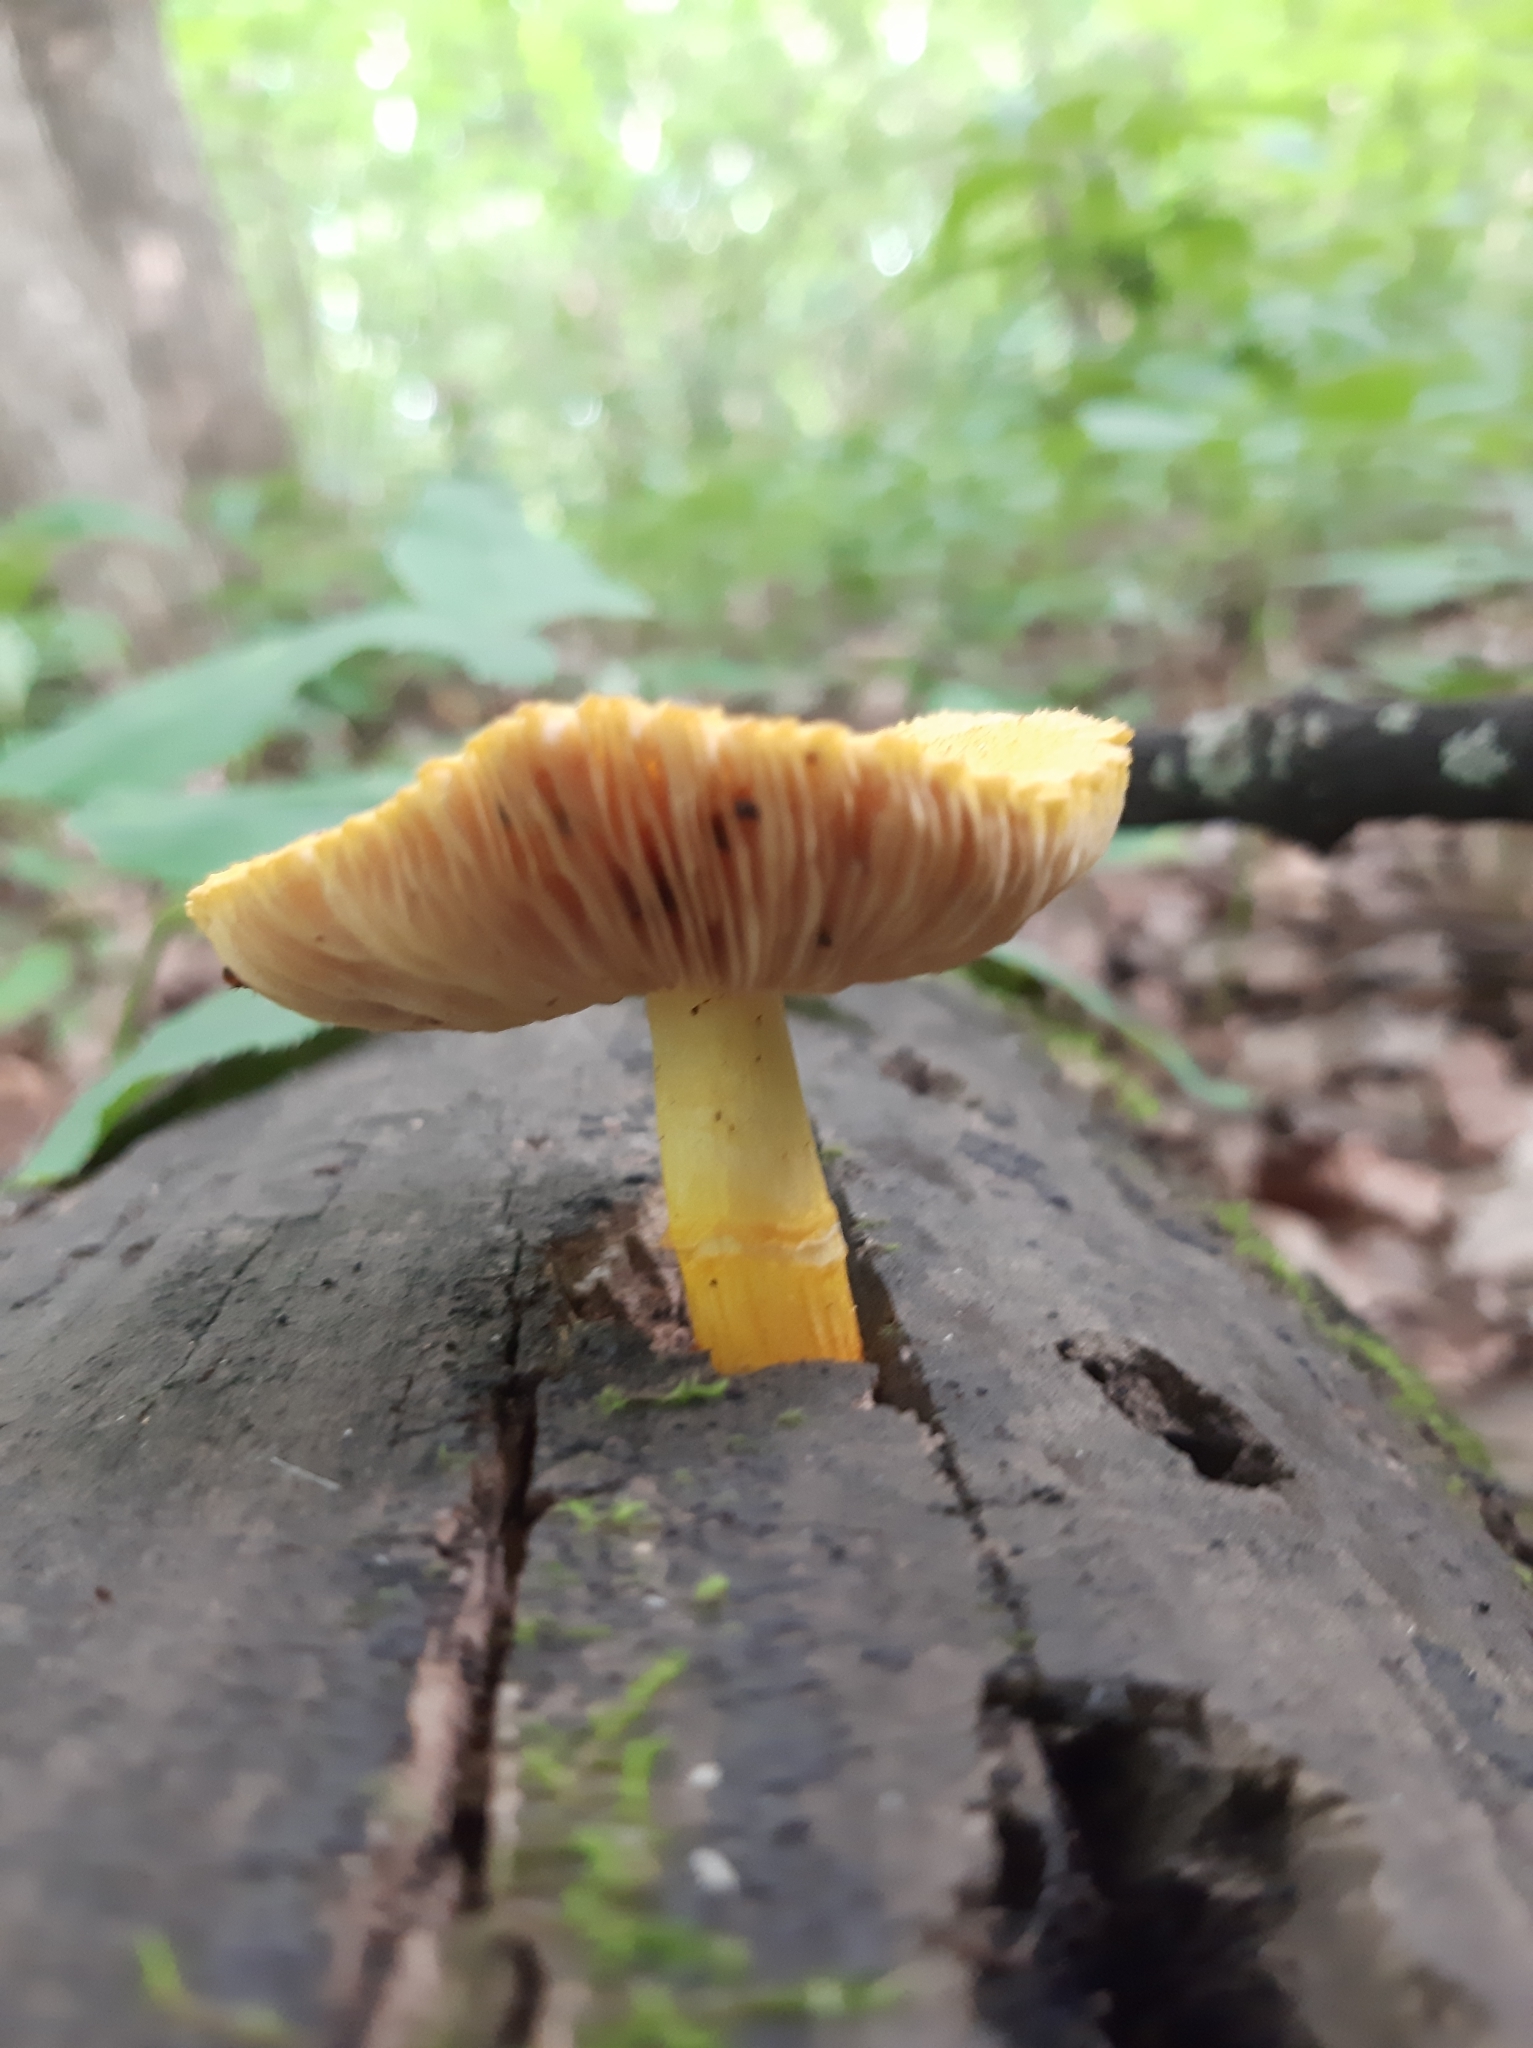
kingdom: Fungi
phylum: Basidiomycota
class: Agaricomycetes
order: Agaricales
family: Pluteaceae
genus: Pluteus
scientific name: Pluteus fenzlii
